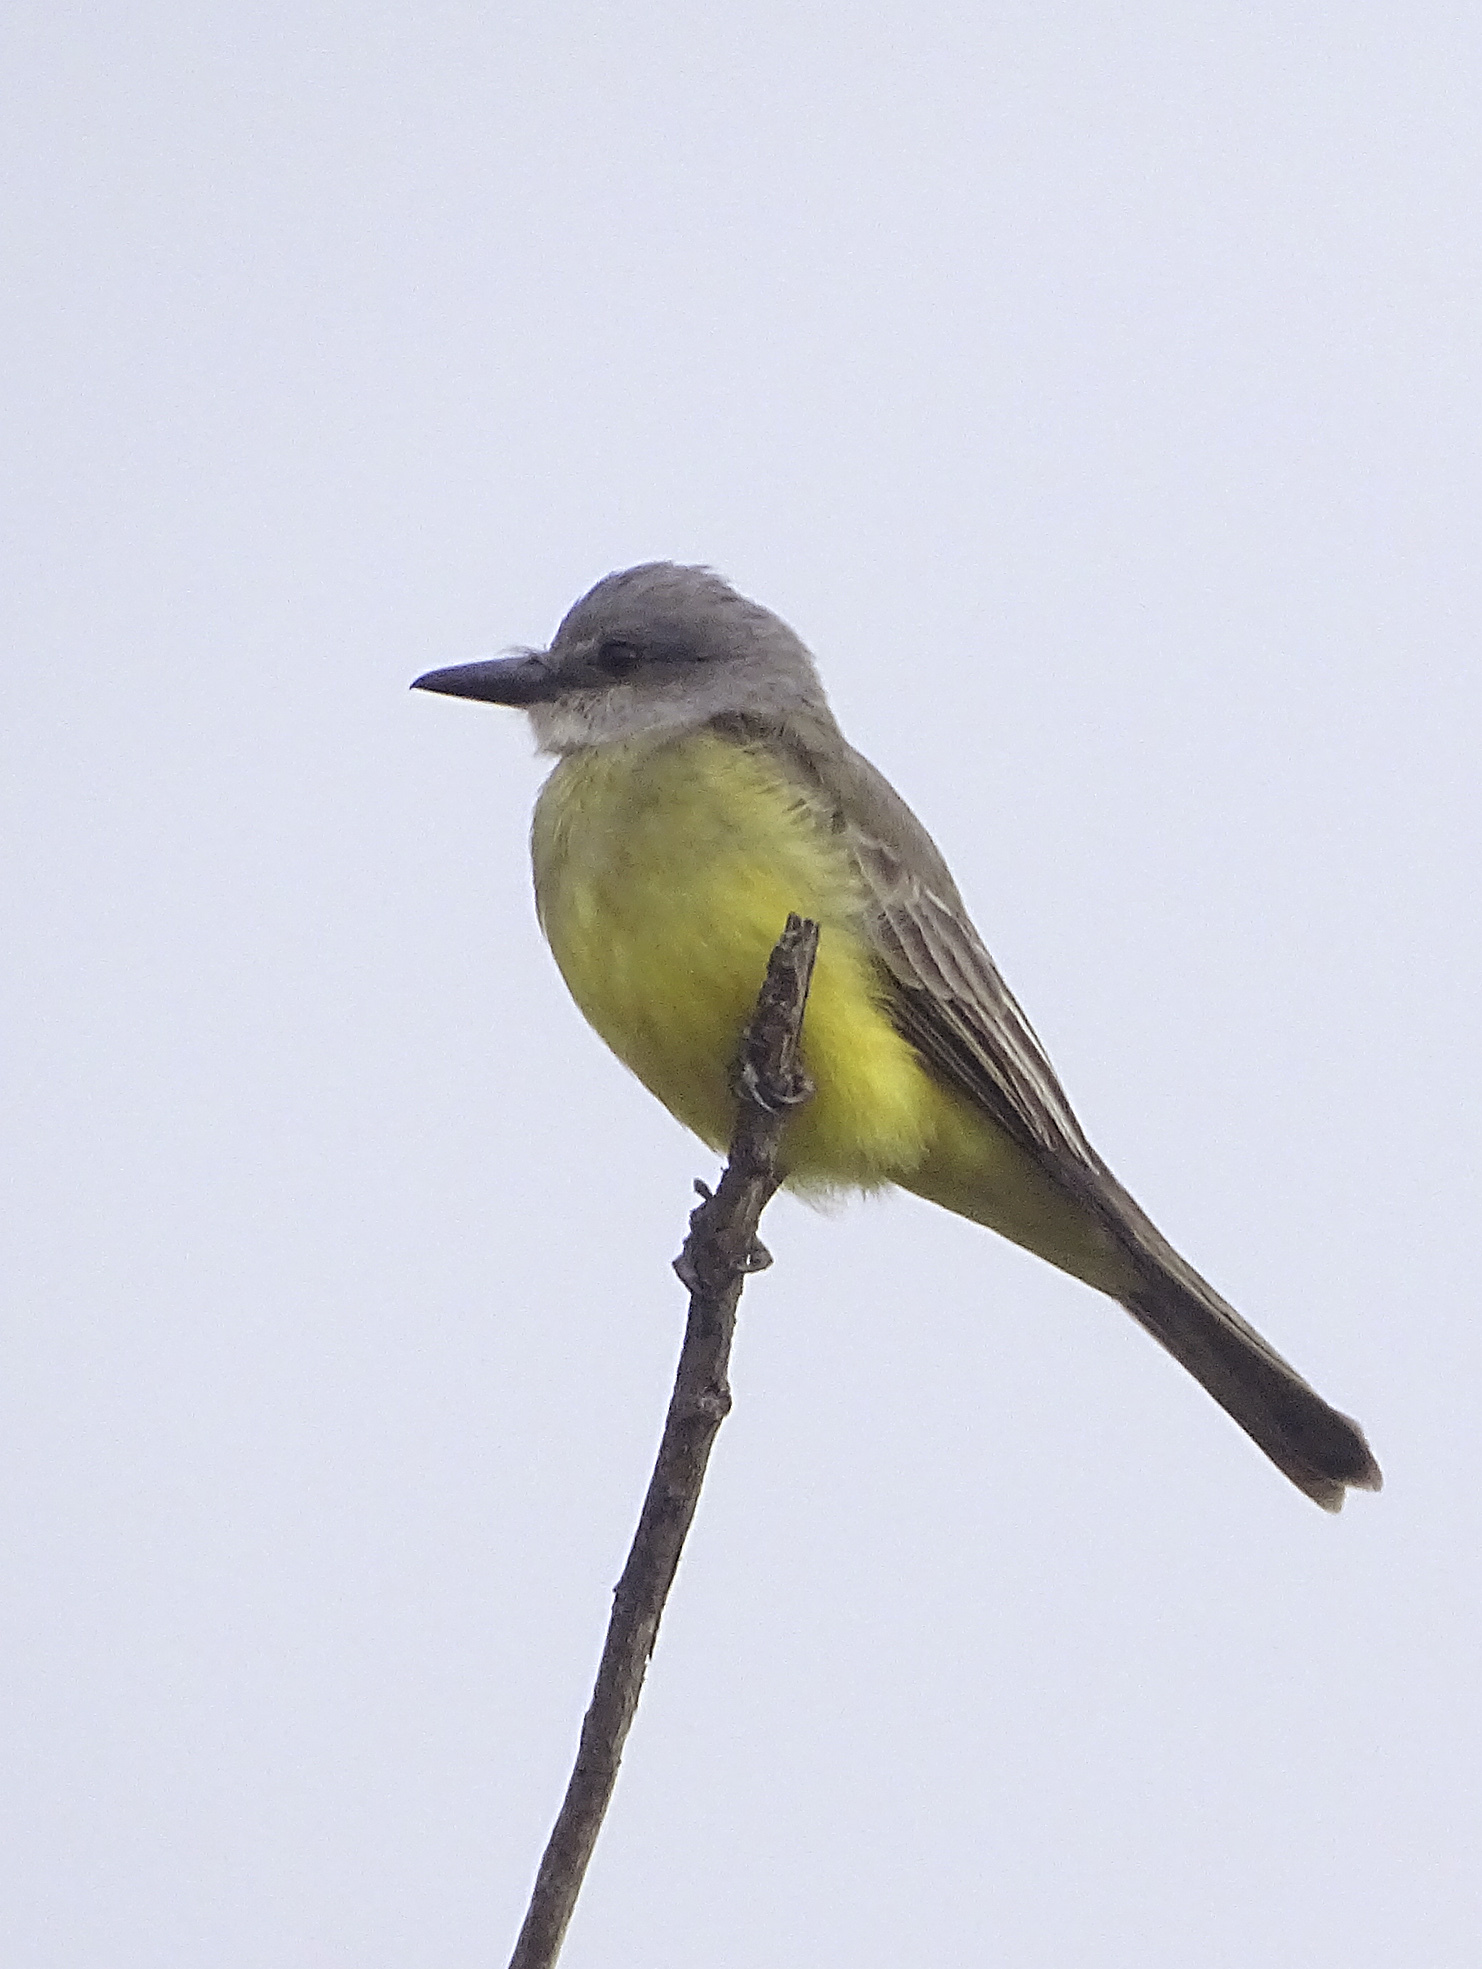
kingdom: Animalia
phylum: Chordata
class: Aves
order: Passeriformes
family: Tyrannidae
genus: Tyrannus
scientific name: Tyrannus melancholicus
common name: Tropical kingbird
